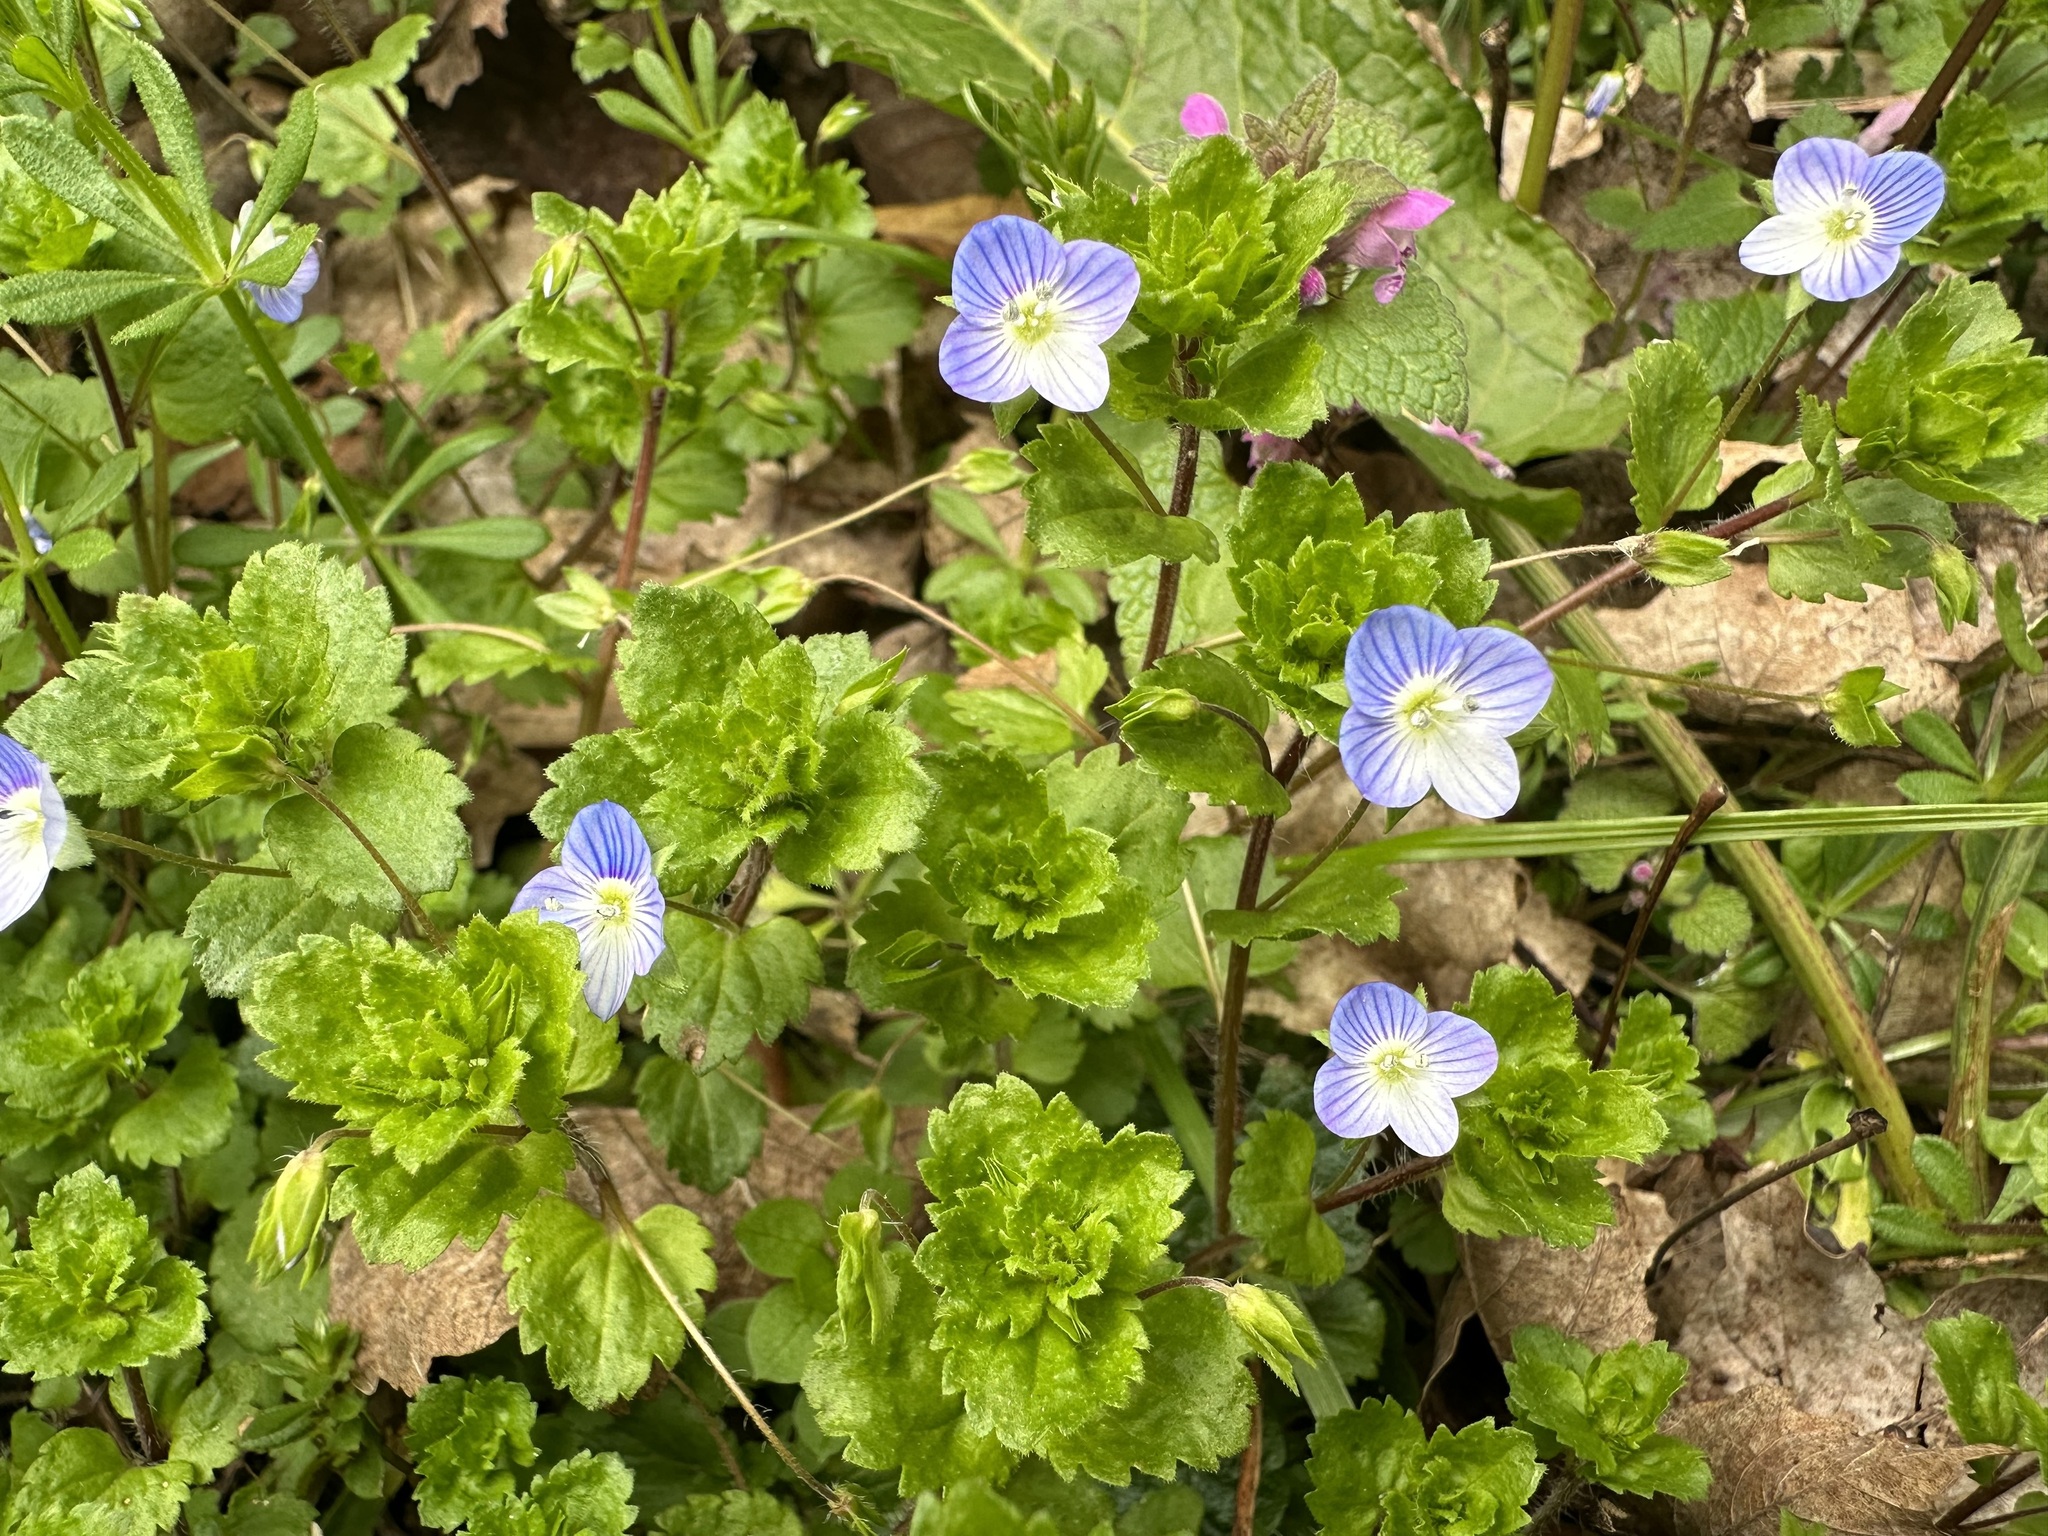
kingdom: Plantae
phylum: Tracheophyta
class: Magnoliopsida
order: Lamiales
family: Plantaginaceae
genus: Veronica
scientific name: Veronica persica
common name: Common field-speedwell
